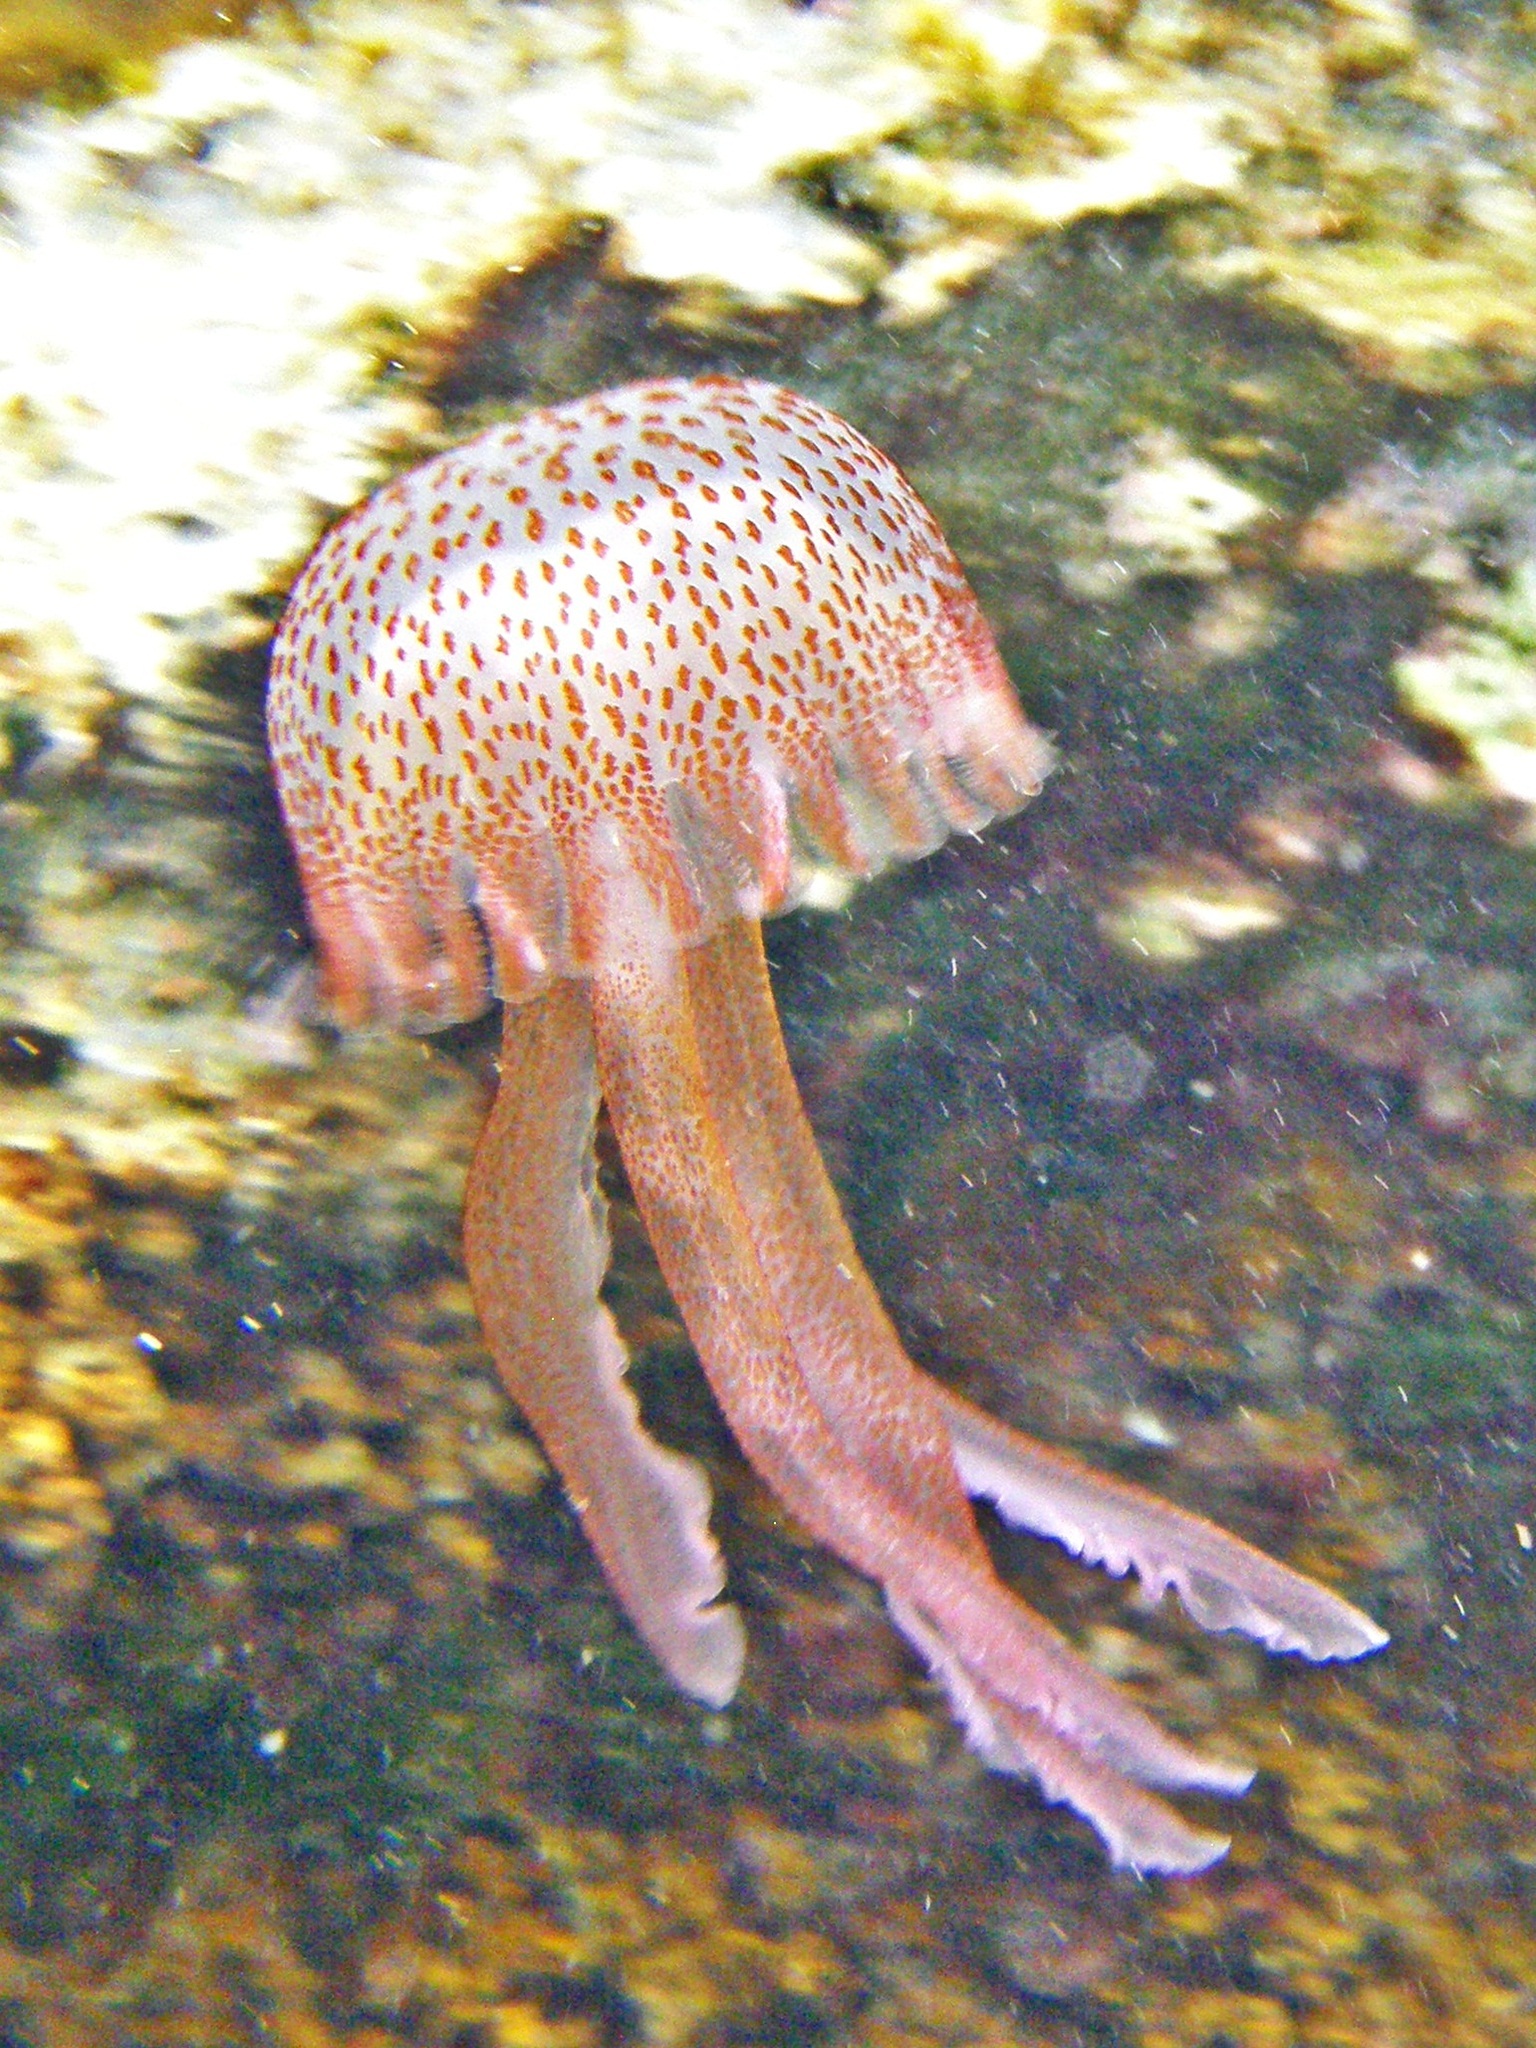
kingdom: Animalia
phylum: Cnidaria
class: Scyphozoa
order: Semaeostomeae
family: Pelagiidae
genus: Pelagia
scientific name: Pelagia noctiluca
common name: Mauve stinger
